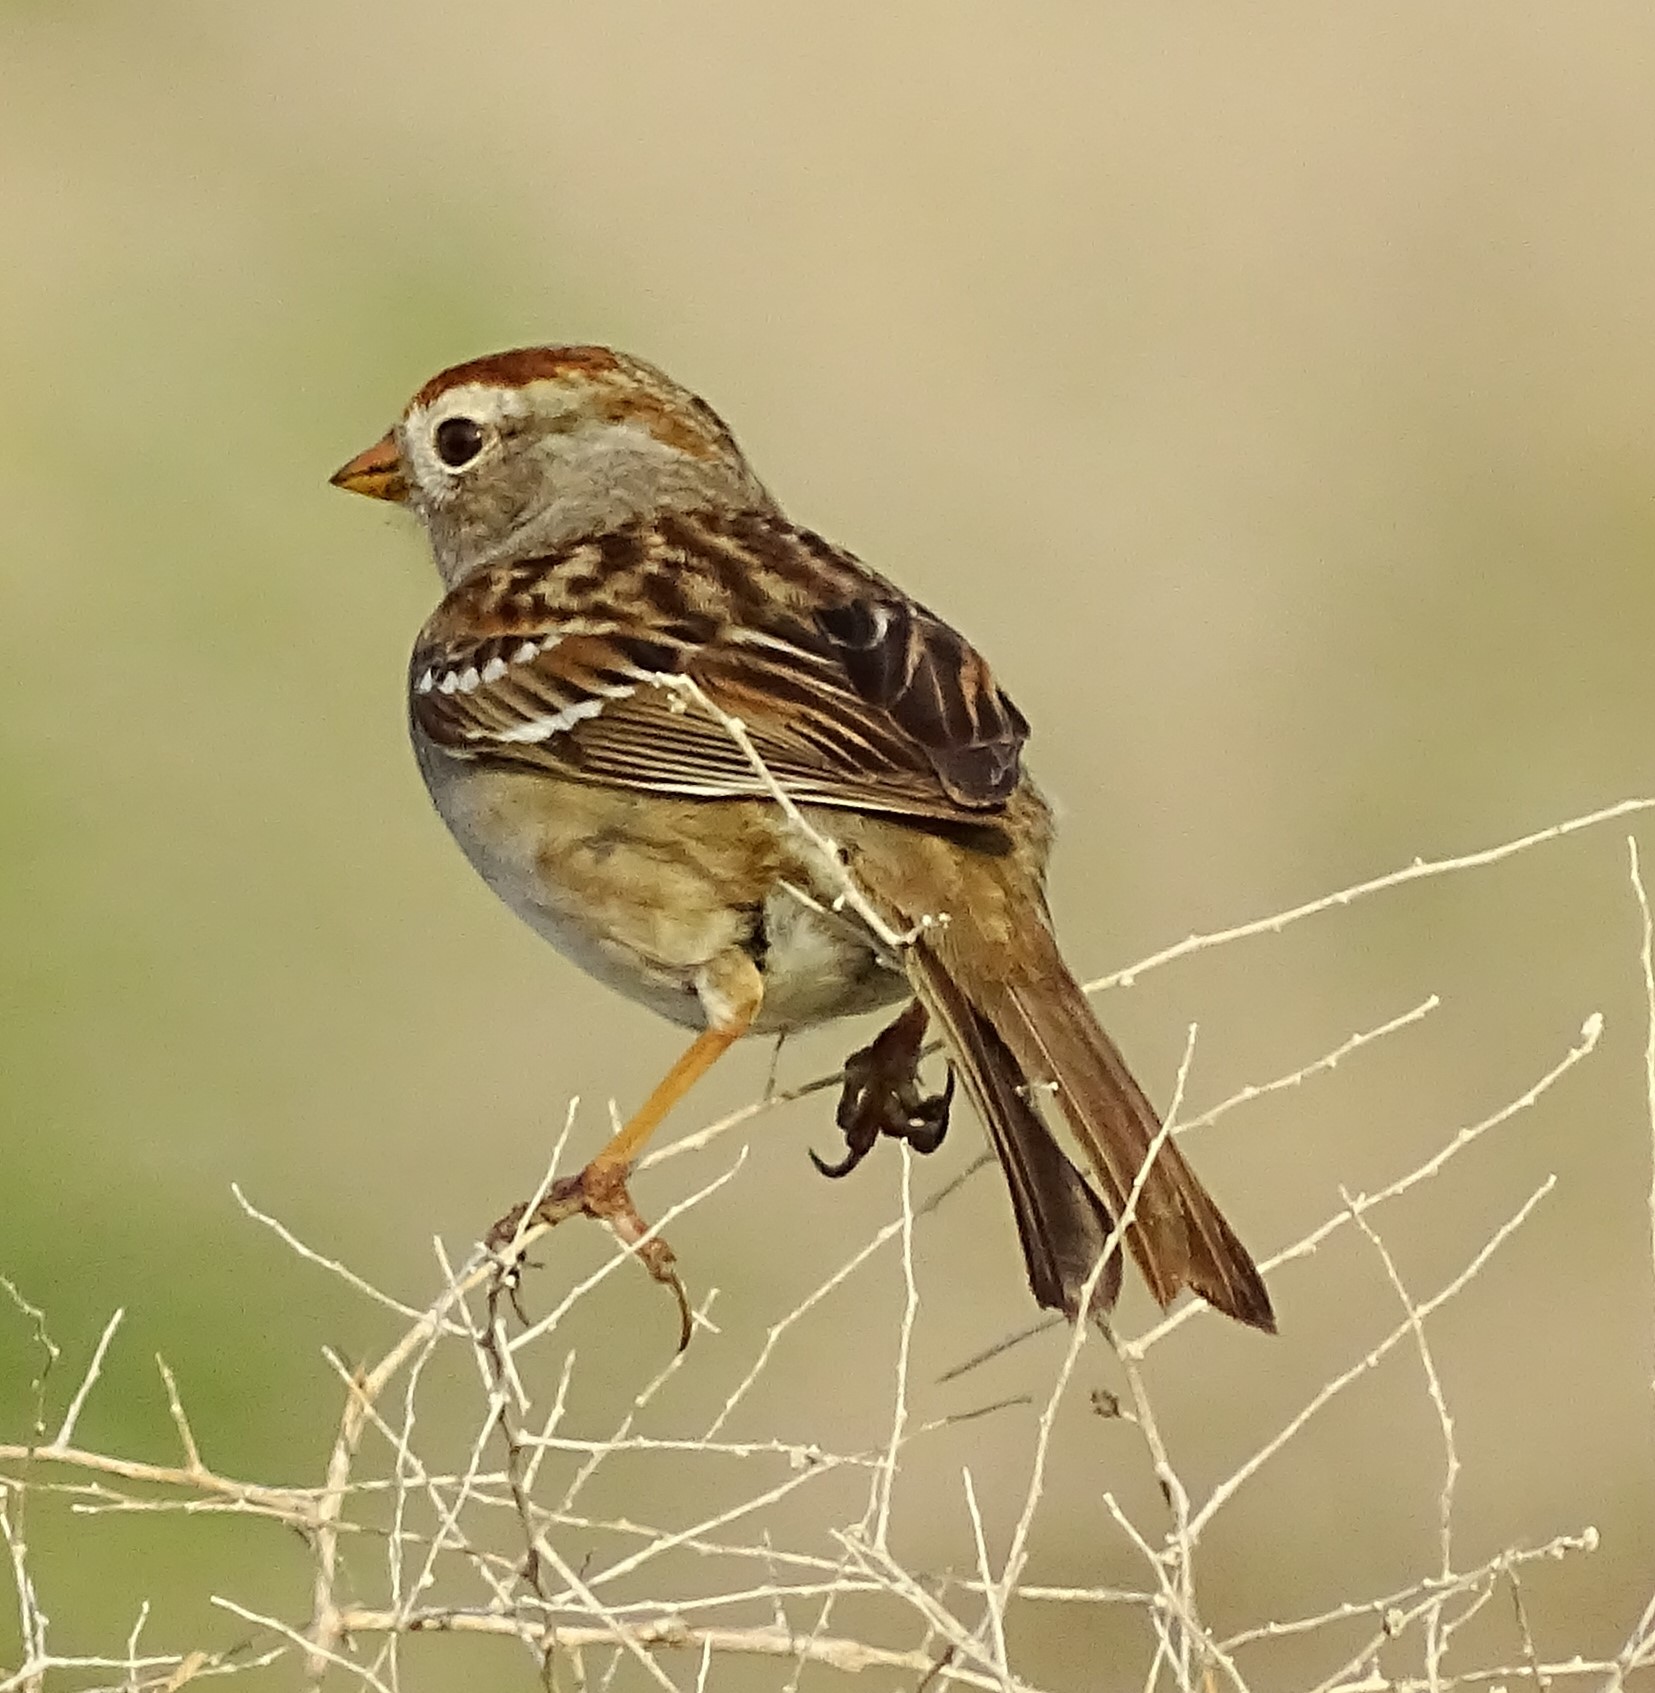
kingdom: Animalia
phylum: Chordata
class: Aves
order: Passeriformes
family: Passerellidae
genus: Zonotrichia
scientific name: Zonotrichia leucophrys
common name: White-crowned sparrow
